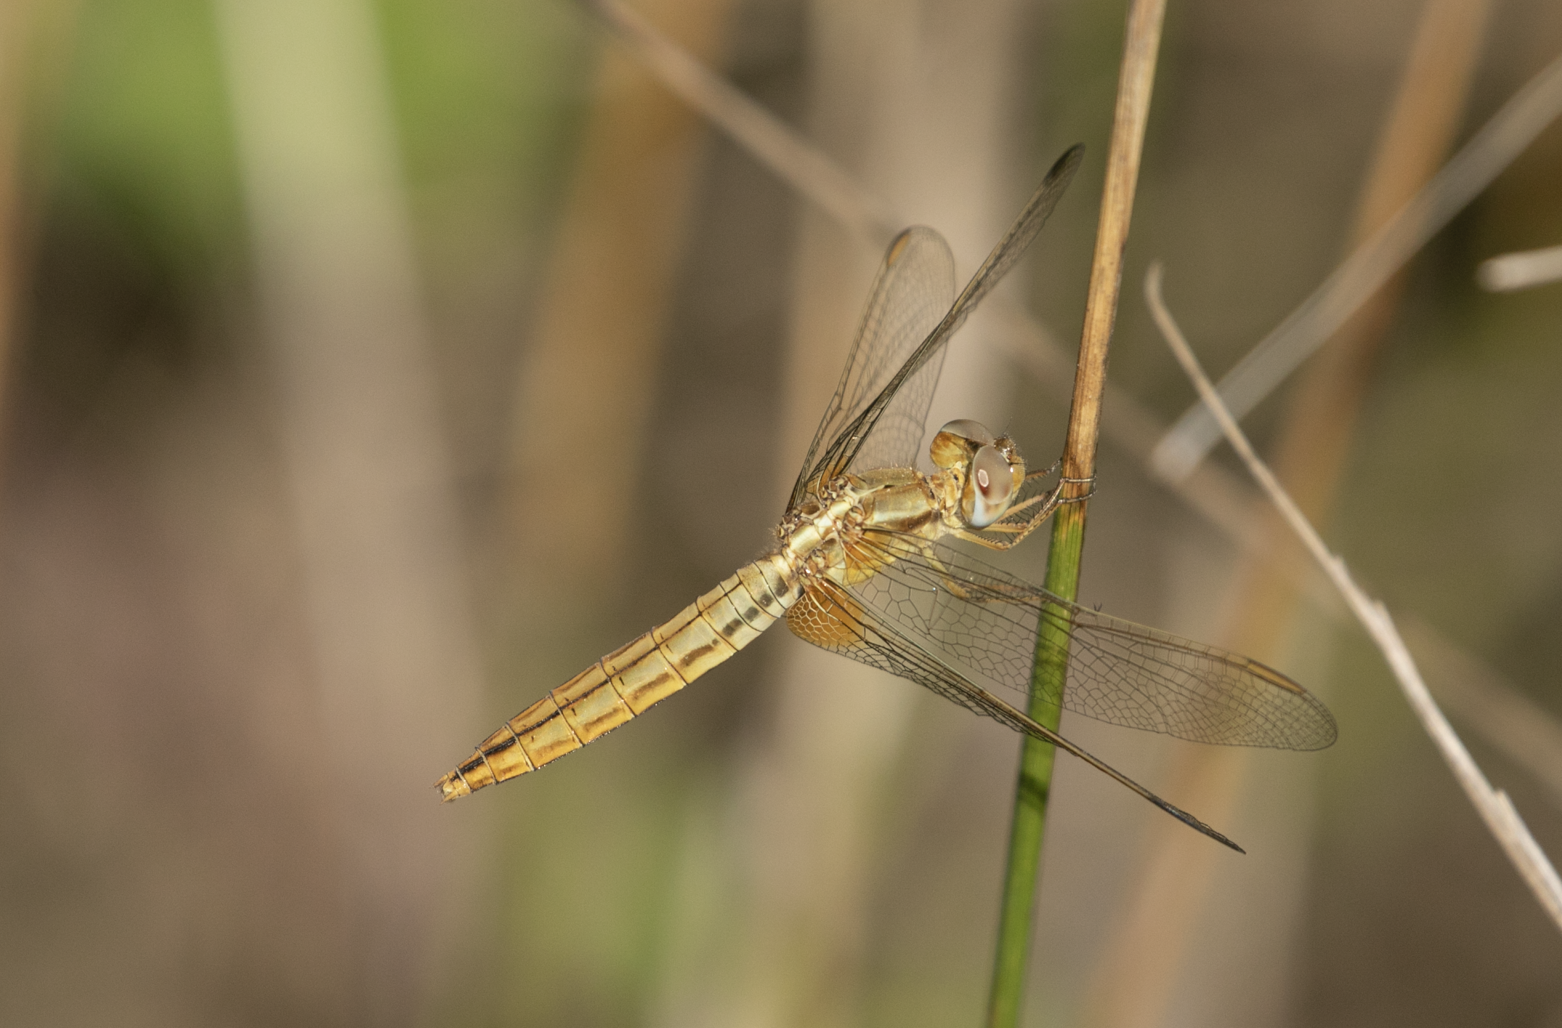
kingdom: Animalia
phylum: Arthropoda
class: Insecta
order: Odonata
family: Libellulidae
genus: Crocothemis
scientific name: Crocothemis erythraea
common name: Scarlet dragonfly
